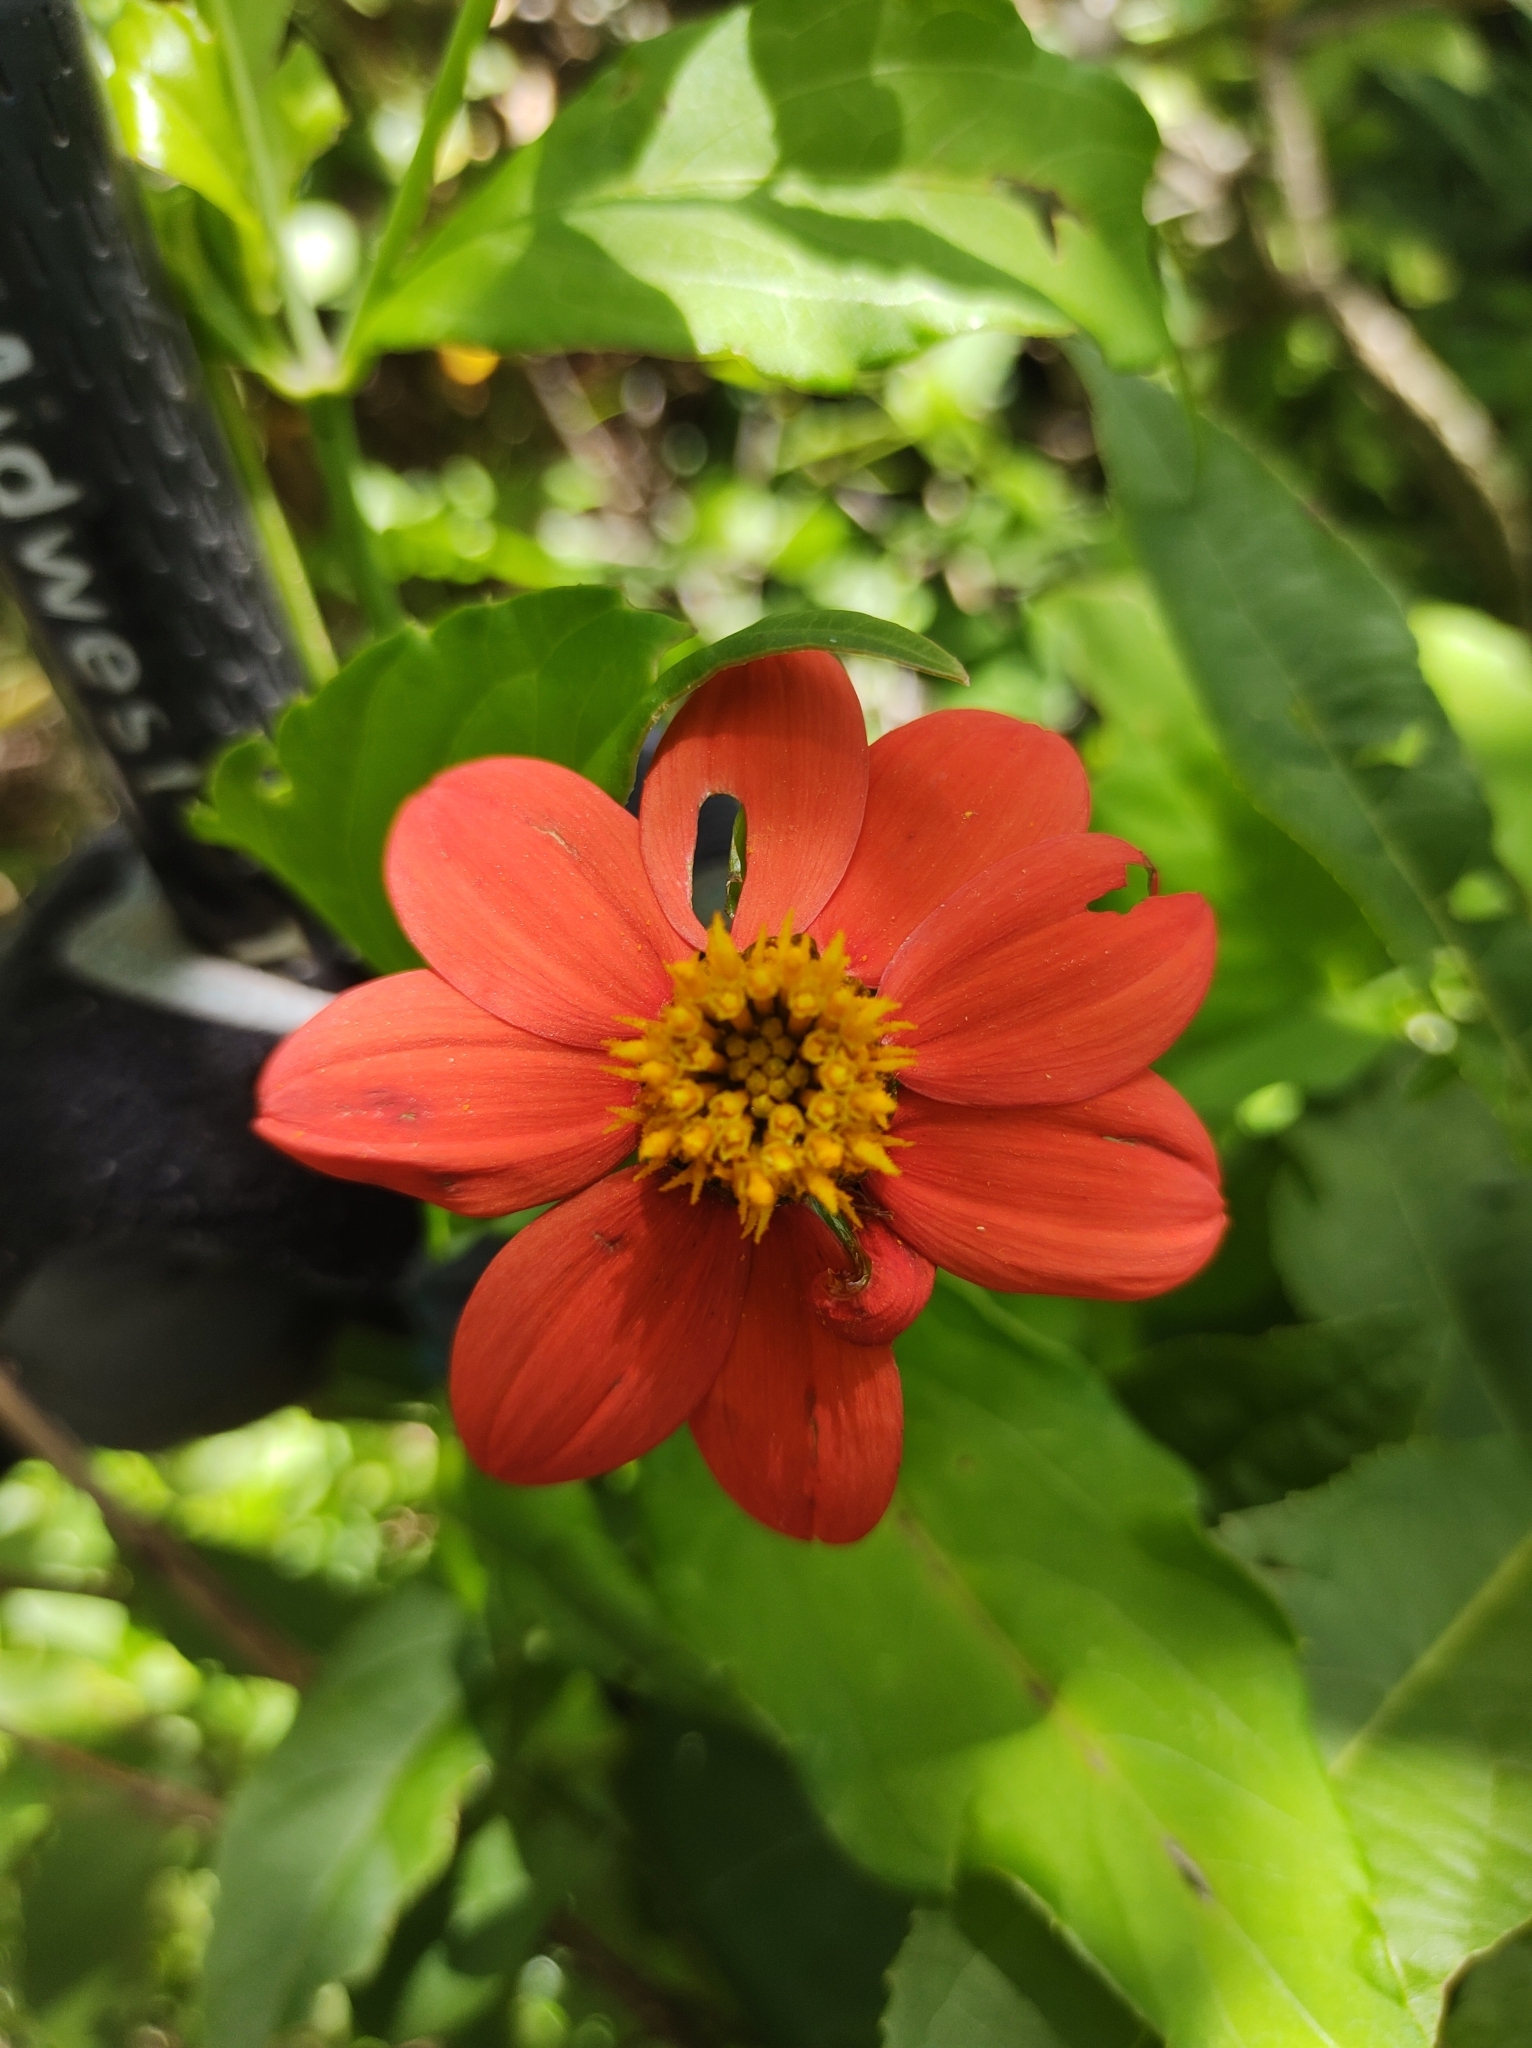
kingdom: Plantae
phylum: Tracheophyta
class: Magnoliopsida
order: Asterales
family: Asteraceae
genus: Dahlia
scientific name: Dahlia coccinea
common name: Red dahlia
